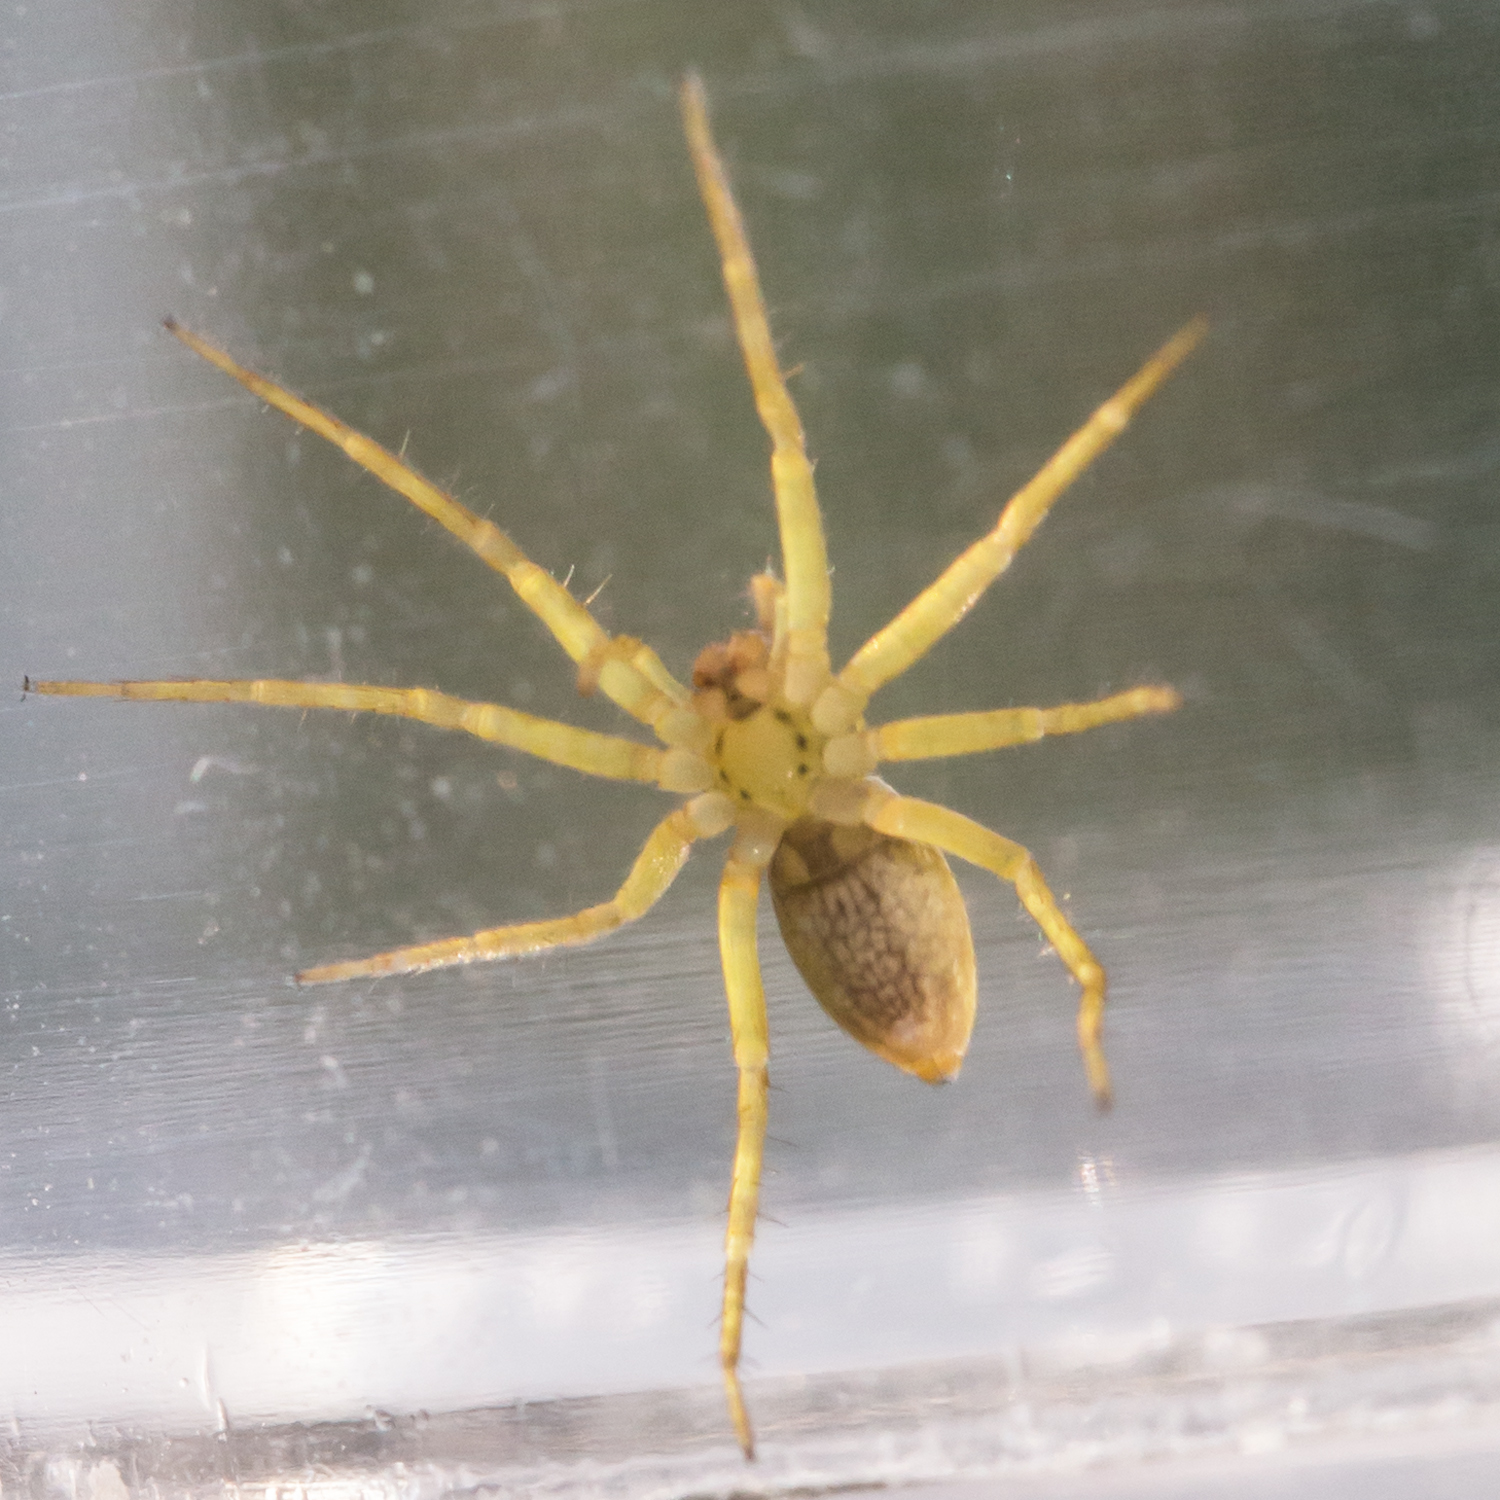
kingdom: Animalia
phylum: Arthropoda
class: Arachnida
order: Araneae
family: Pisauridae
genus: Dolomedes
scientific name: Dolomedes triton
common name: Six-spotted fishing spider
